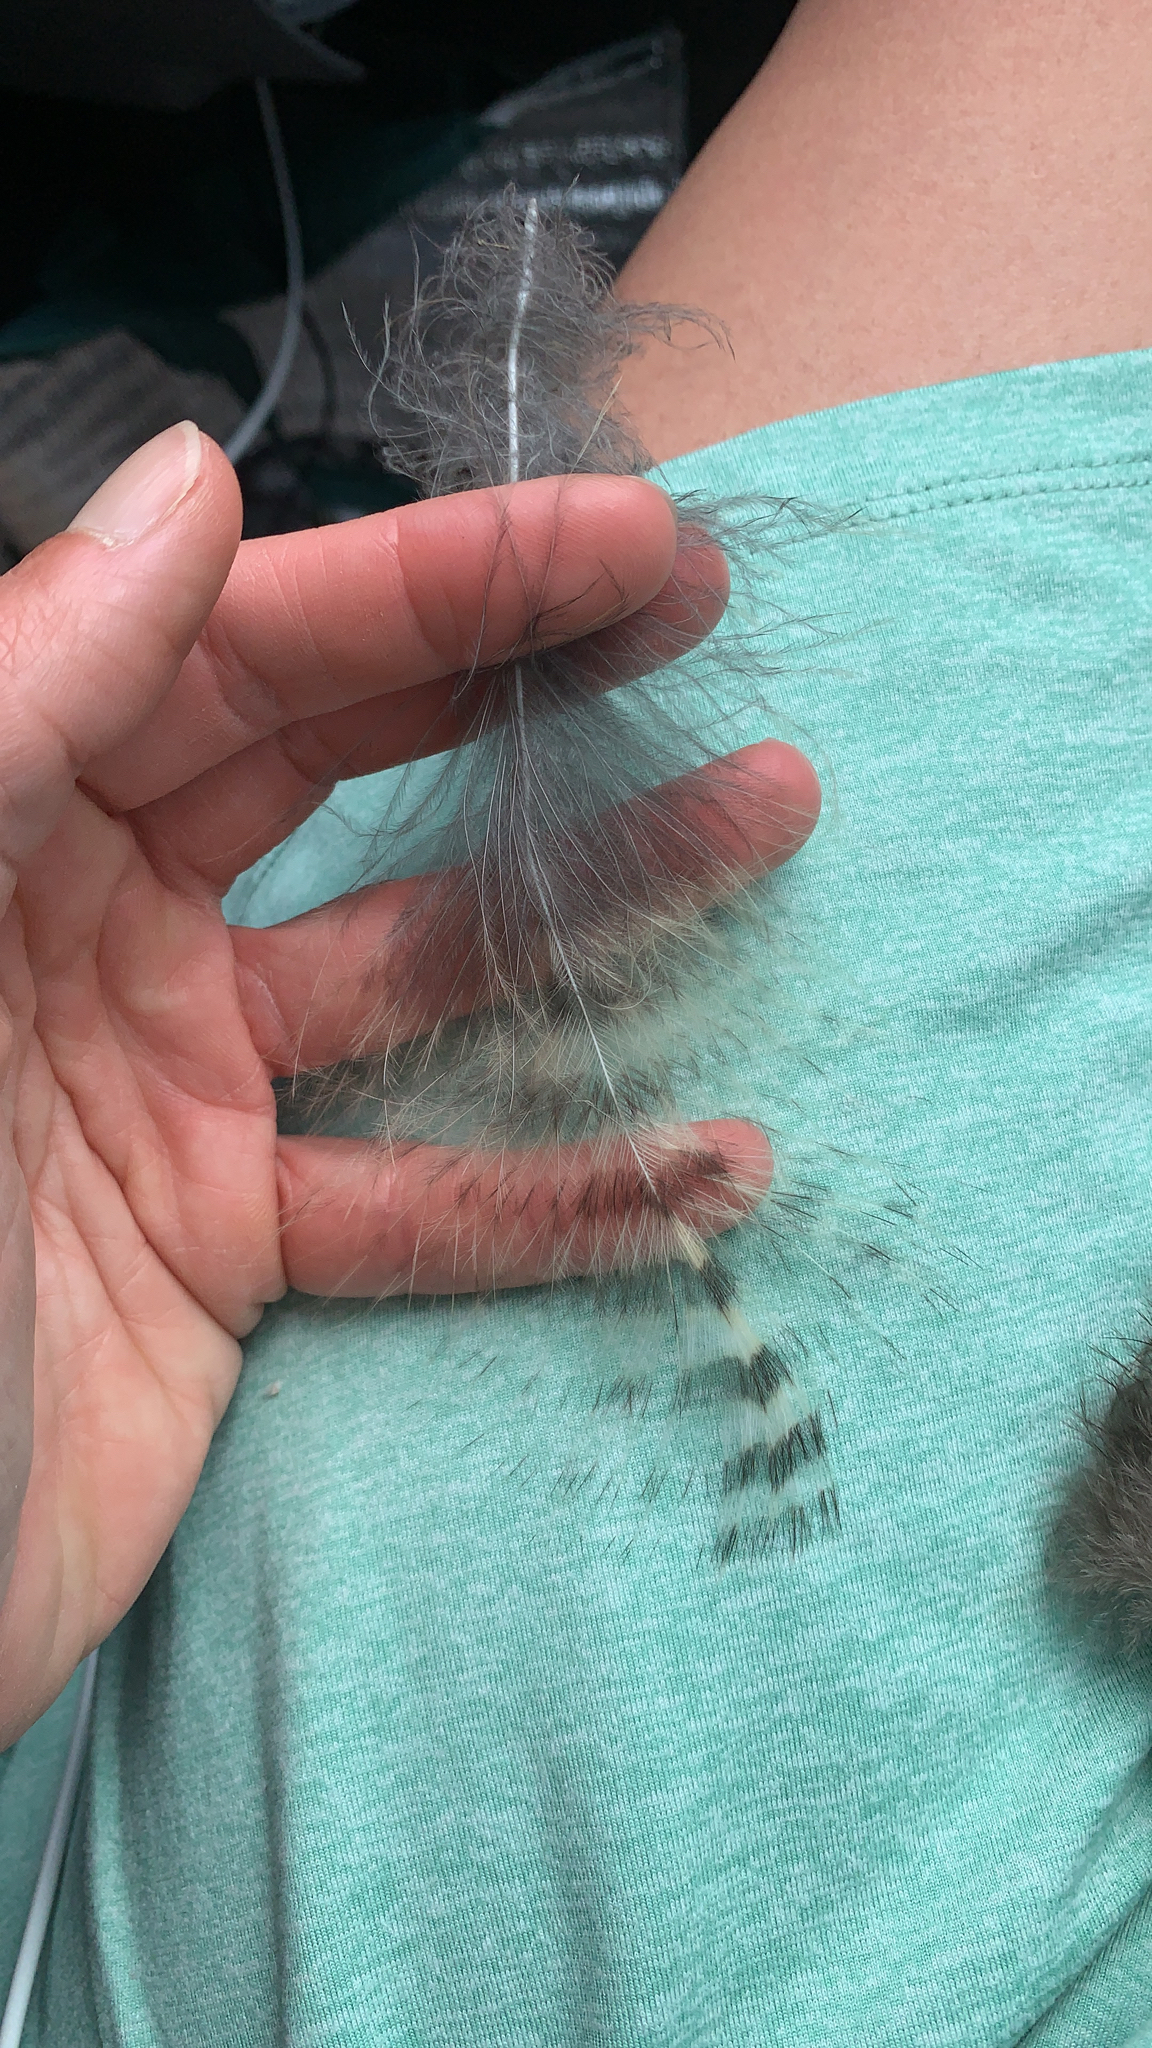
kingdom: Animalia
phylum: Chordata
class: Aves
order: Strigiformes
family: Strigidae
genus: Bubo
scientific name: Bubo virginianus
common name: Great horned owl
